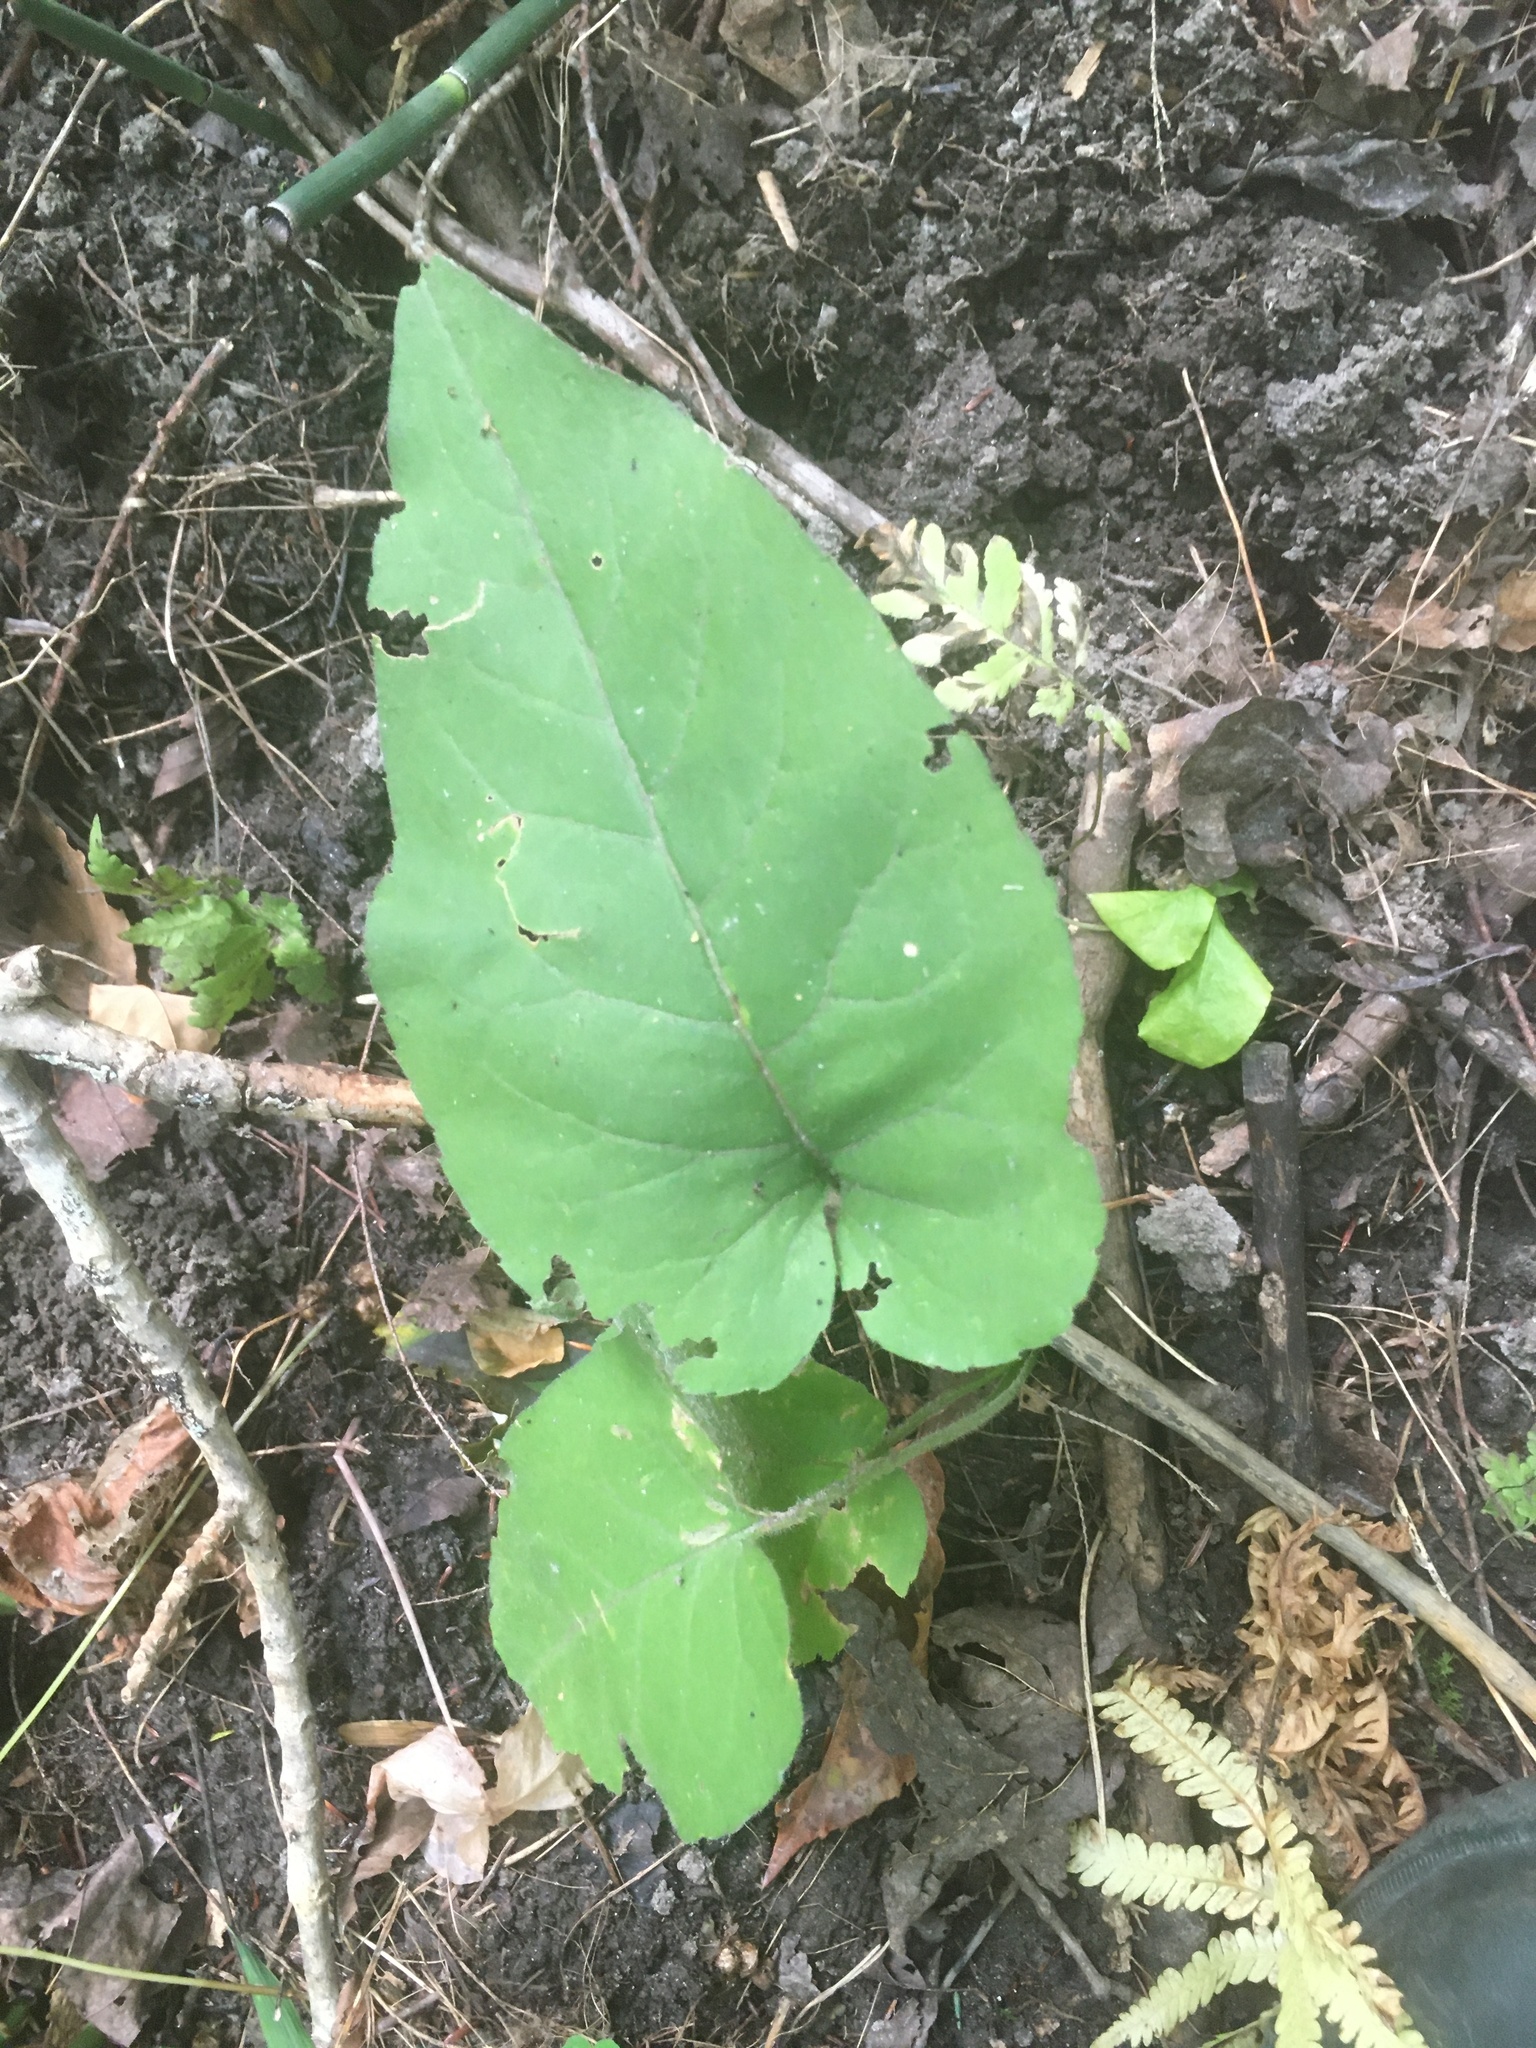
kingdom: Plantae
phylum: Tracheophyta
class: Magnoliopsida
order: Asterales
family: Asteraceae
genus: Eurybia
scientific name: Eurybia macrophylla
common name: Big-leaved aster
